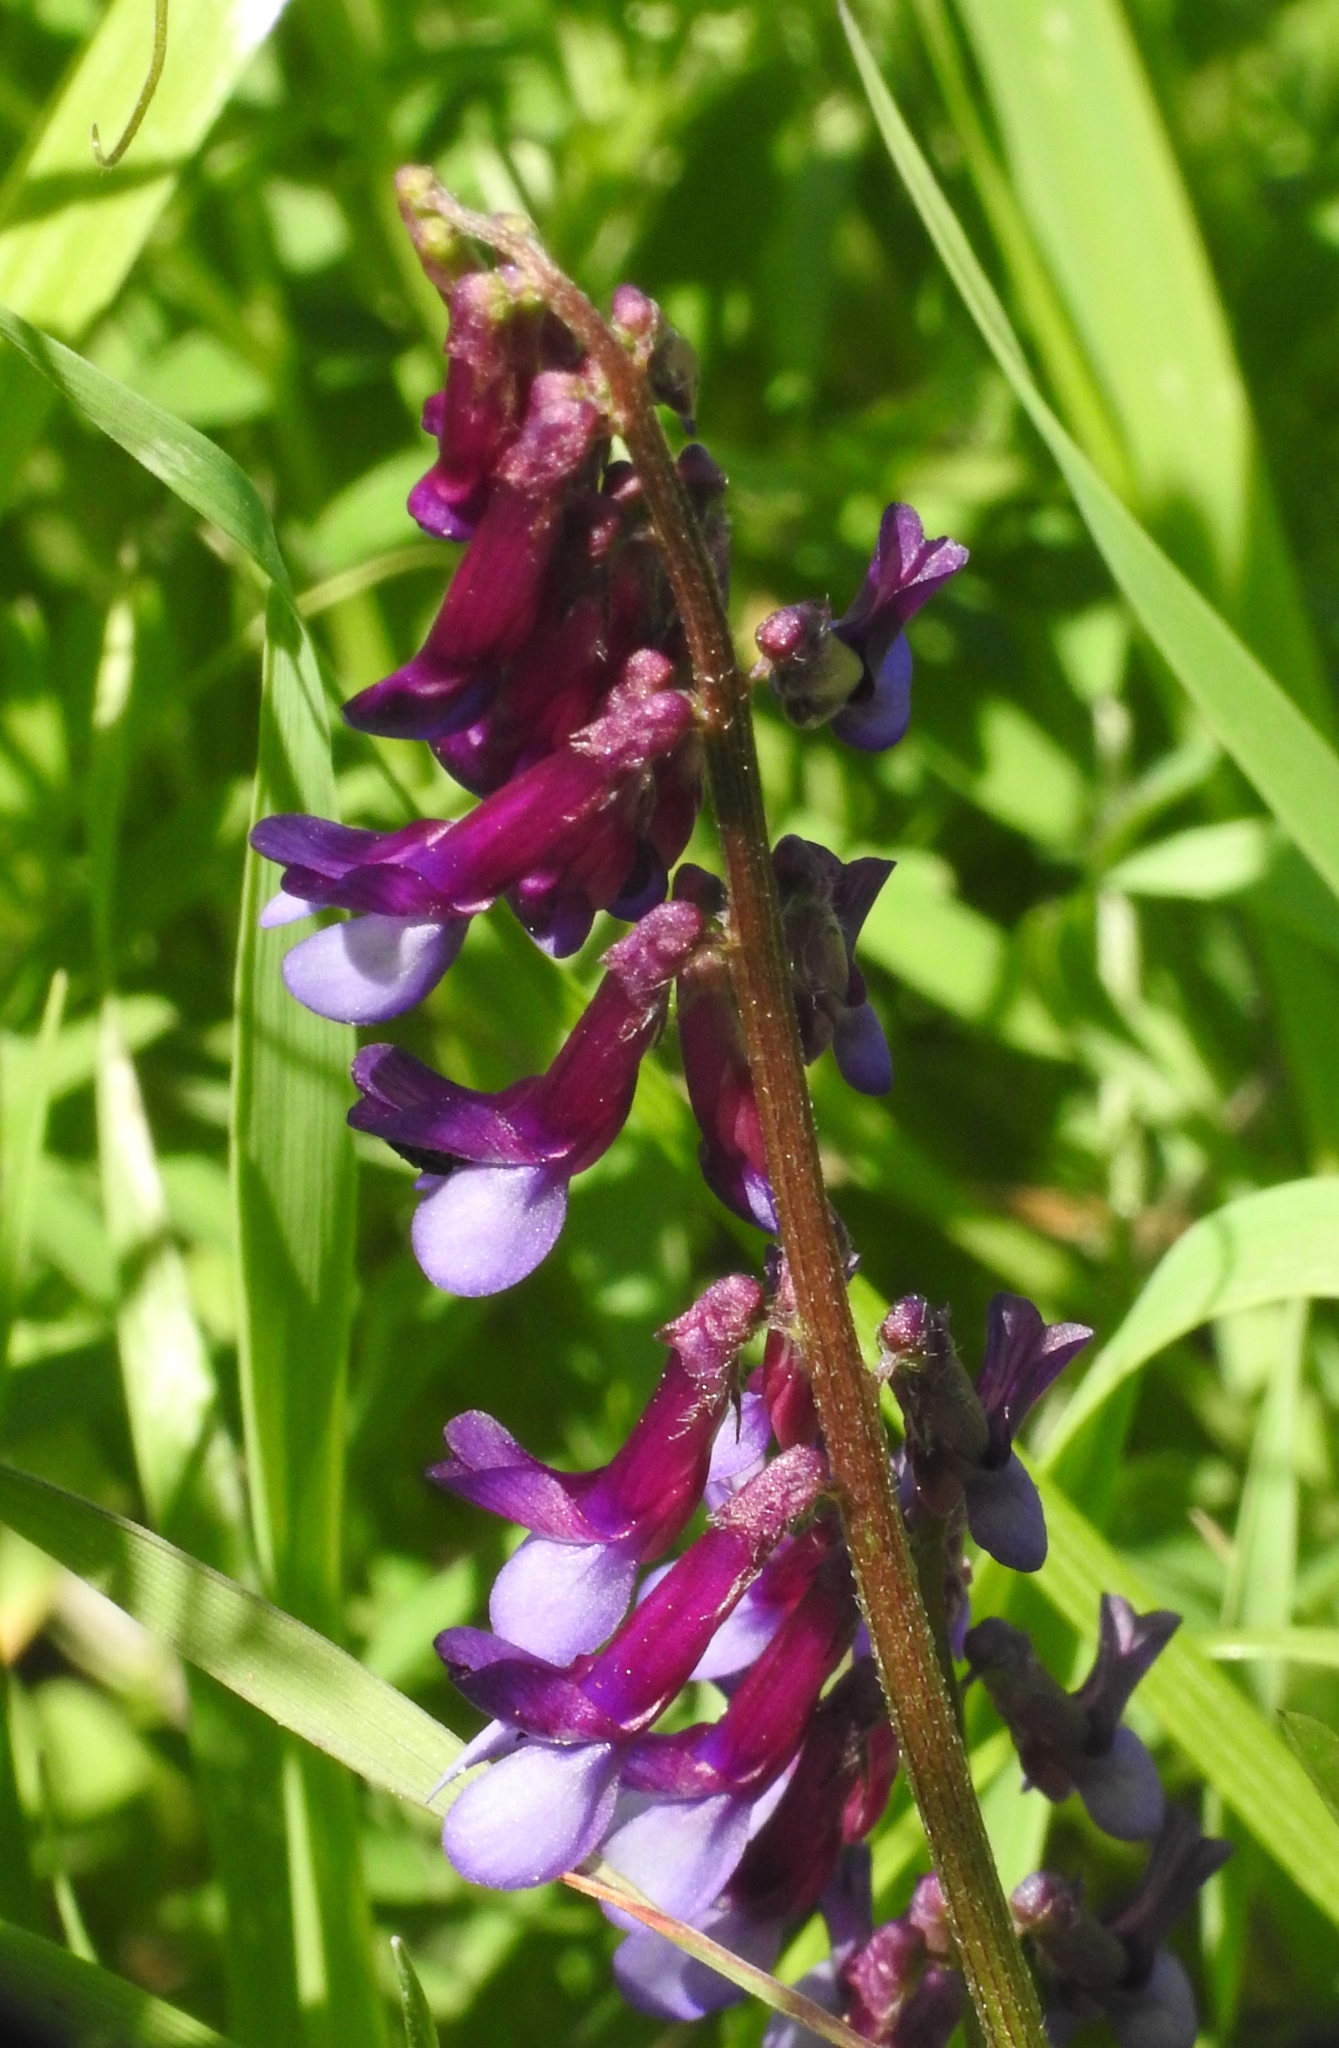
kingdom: Plantae
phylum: Tracheophyta
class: Magnoliopsida
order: Fabales
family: Fabaceae
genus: Vicia
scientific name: Vicia villosa
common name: Fodder vetch
